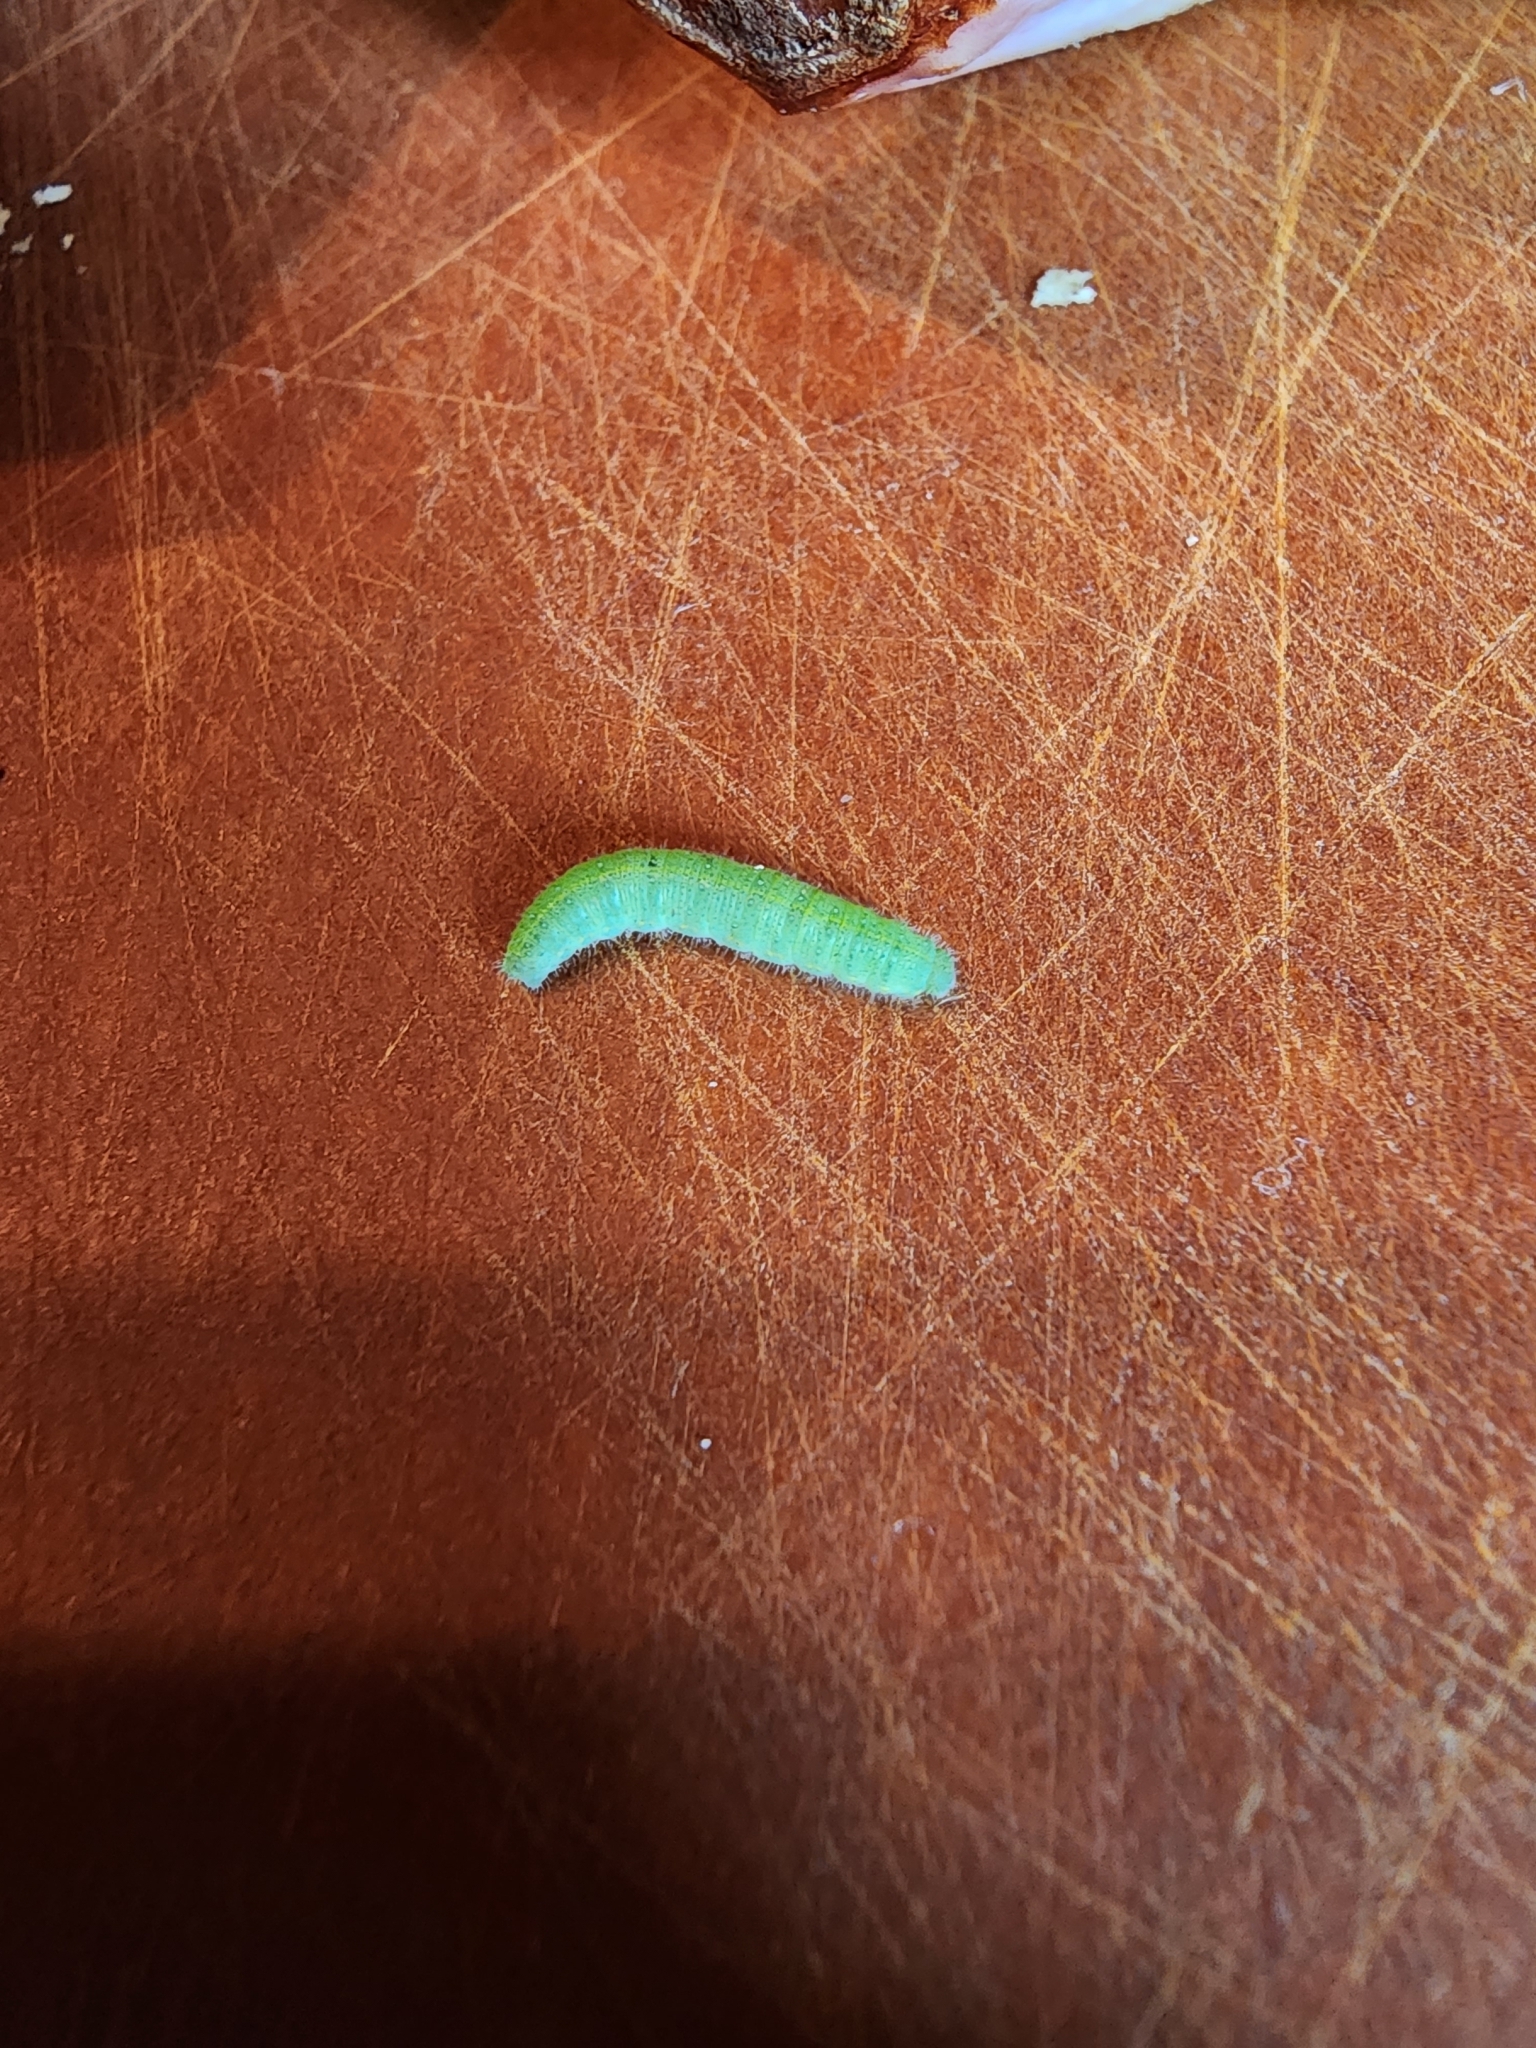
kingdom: Animalia
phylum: Arthropoda
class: Insecta
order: Lepidoptera
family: Pieridae
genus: Pieris
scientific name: Pieris rapae
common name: Small white
